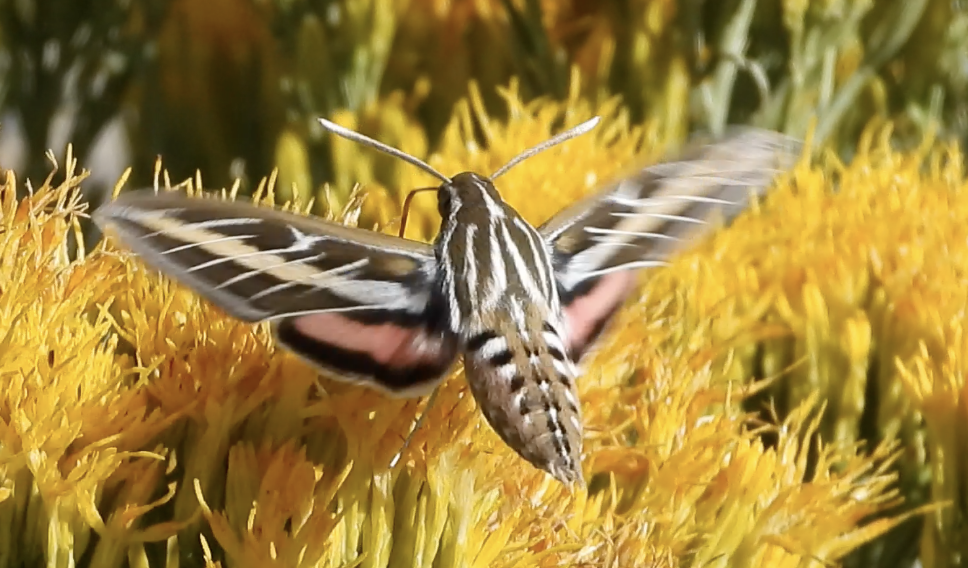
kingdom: Animalia
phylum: Arthropoda
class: Insecta
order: Lepidoptera
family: Sphingidae
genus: Hyles
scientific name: Hyles lineata
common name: White-lined sphinx
